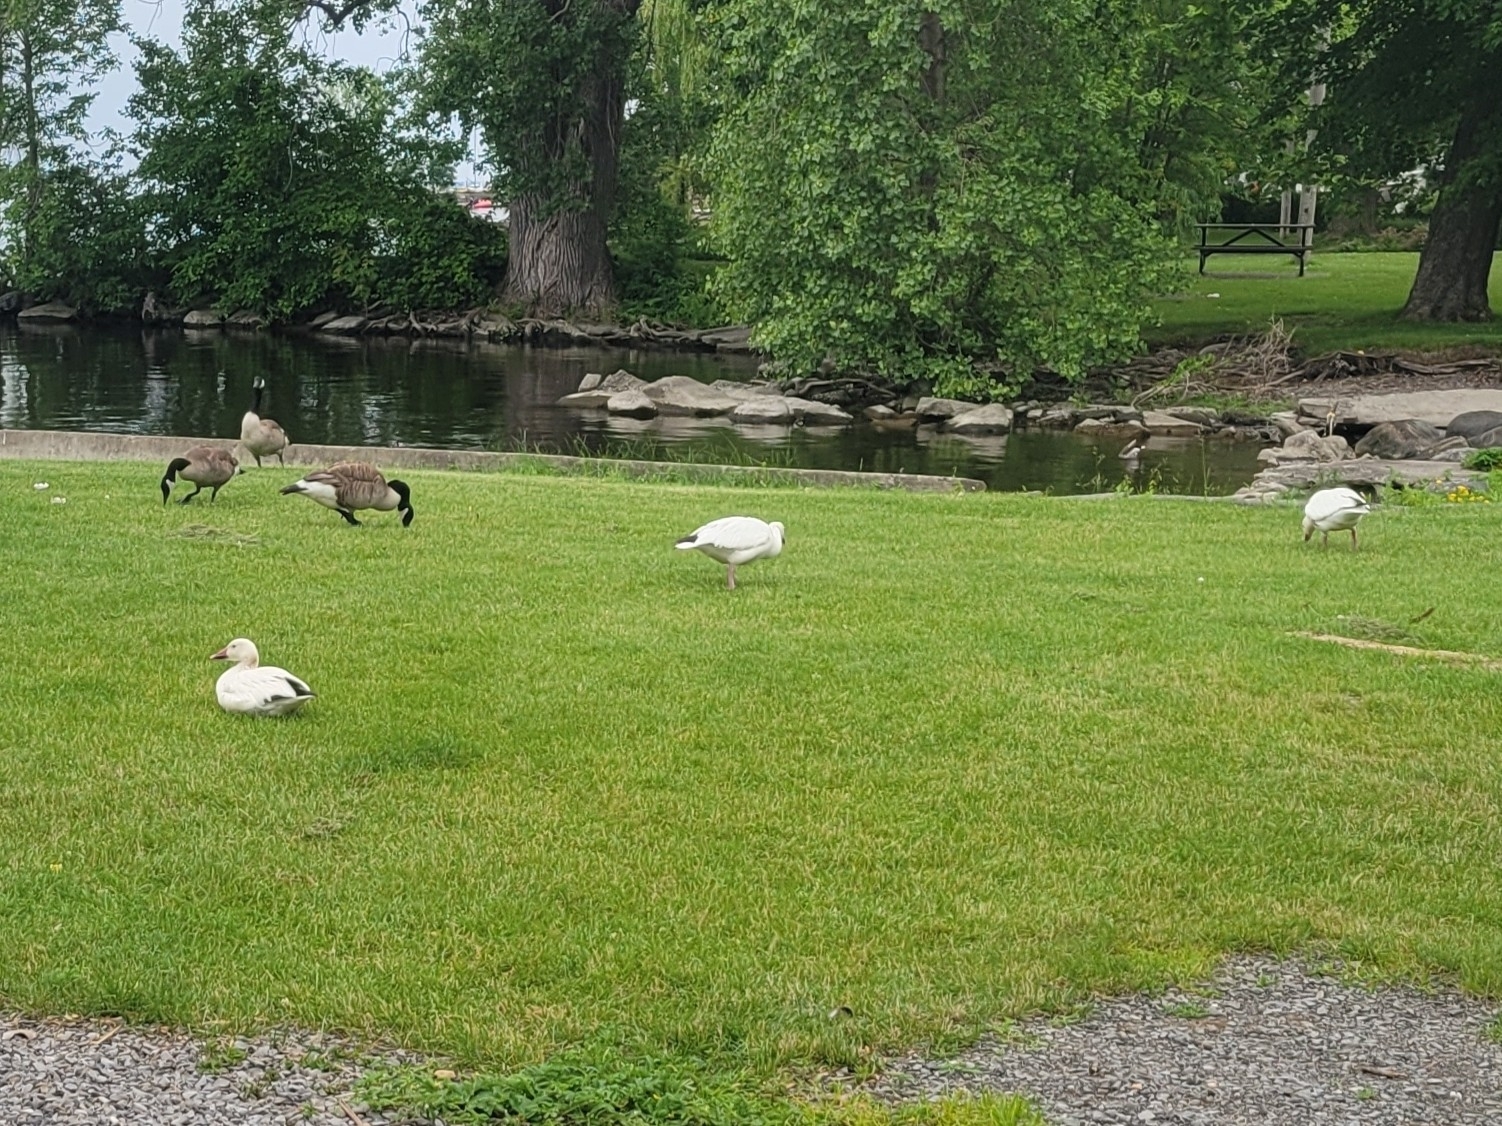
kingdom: Animalia
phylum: Chordata
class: Aves
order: Anseriformes
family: Anatidae
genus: Anser
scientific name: Anser caerulescens
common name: Snow goose
